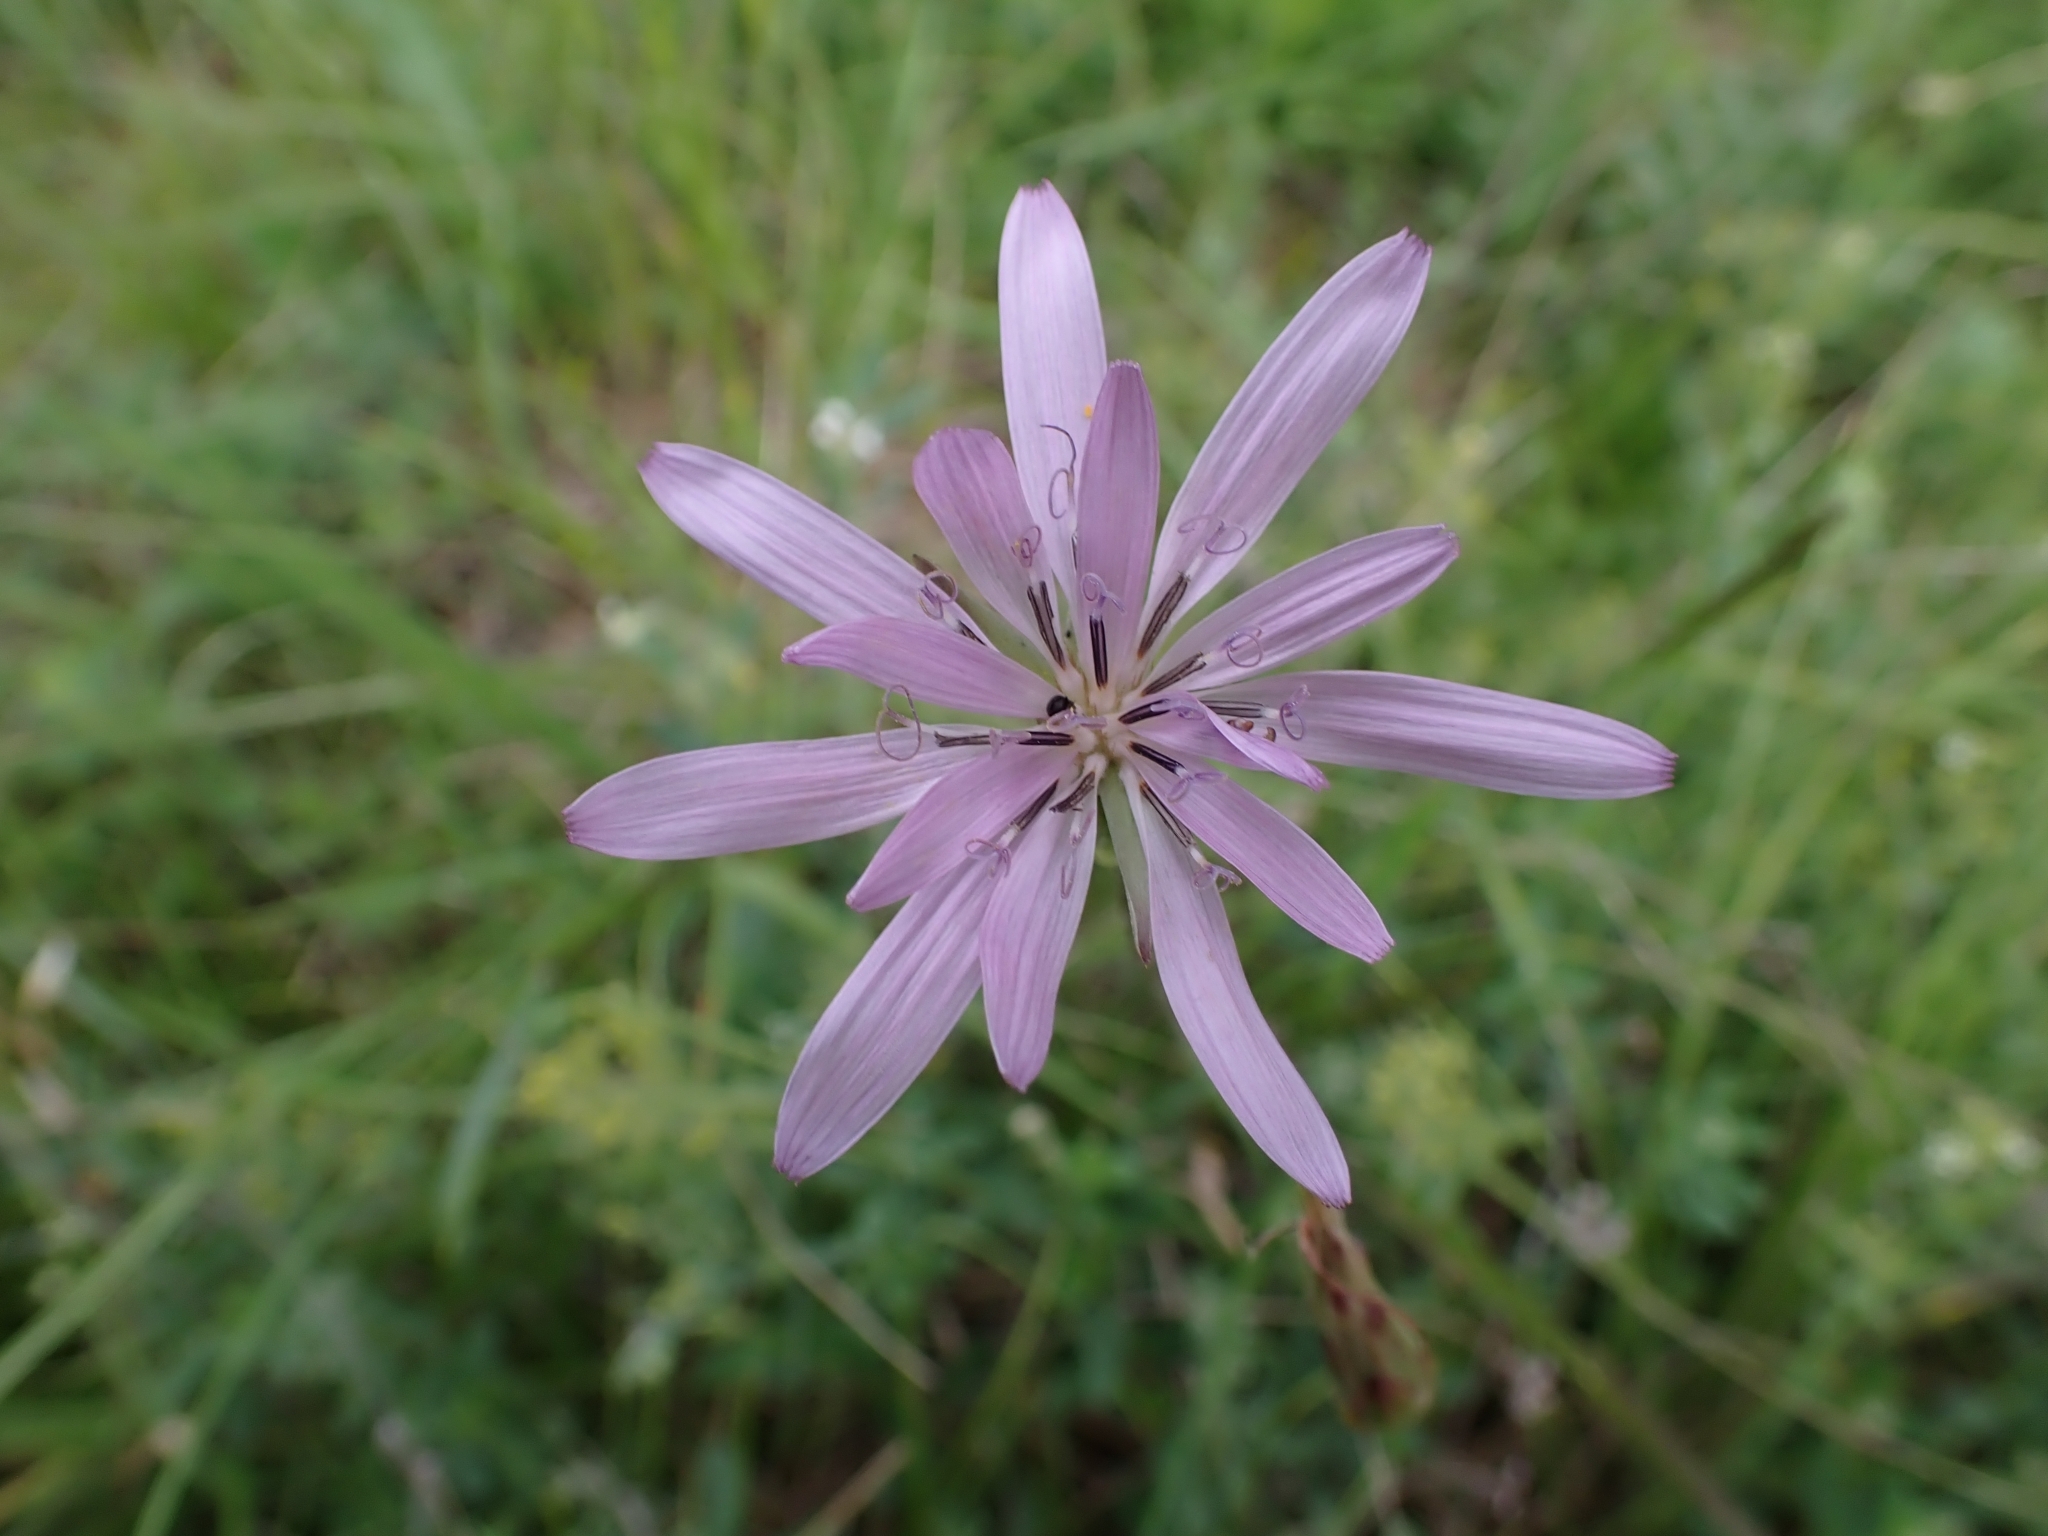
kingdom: Plantae
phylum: Tracheophyta
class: Magnoliopsida
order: Asterales
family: Asteraceae
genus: Scorzonera
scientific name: Scorzonera purpurea
